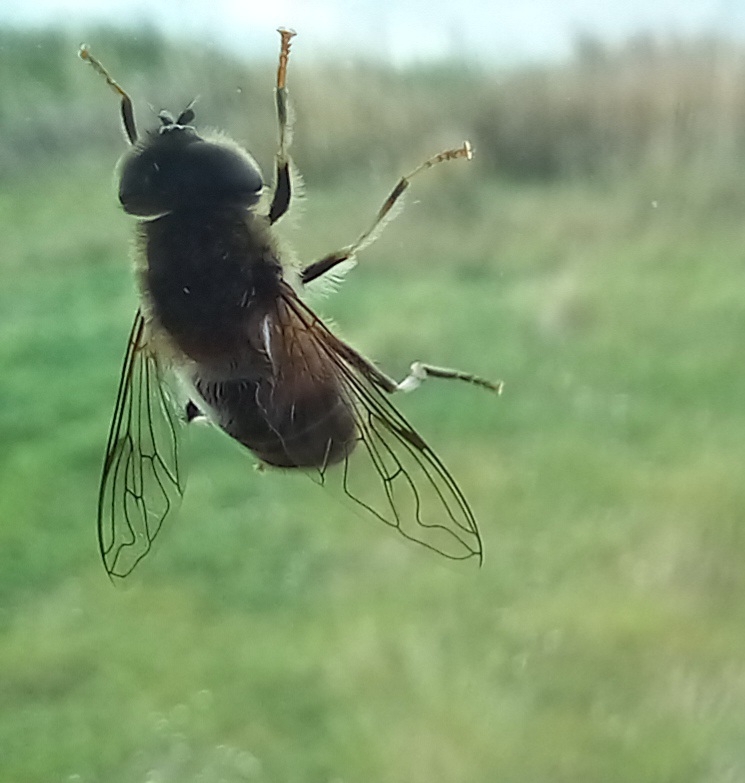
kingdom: Animalia
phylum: Arthropoda
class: Insecta
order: Diptera
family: Syrphidae
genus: Eristalis
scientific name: Eristalis pertinax
